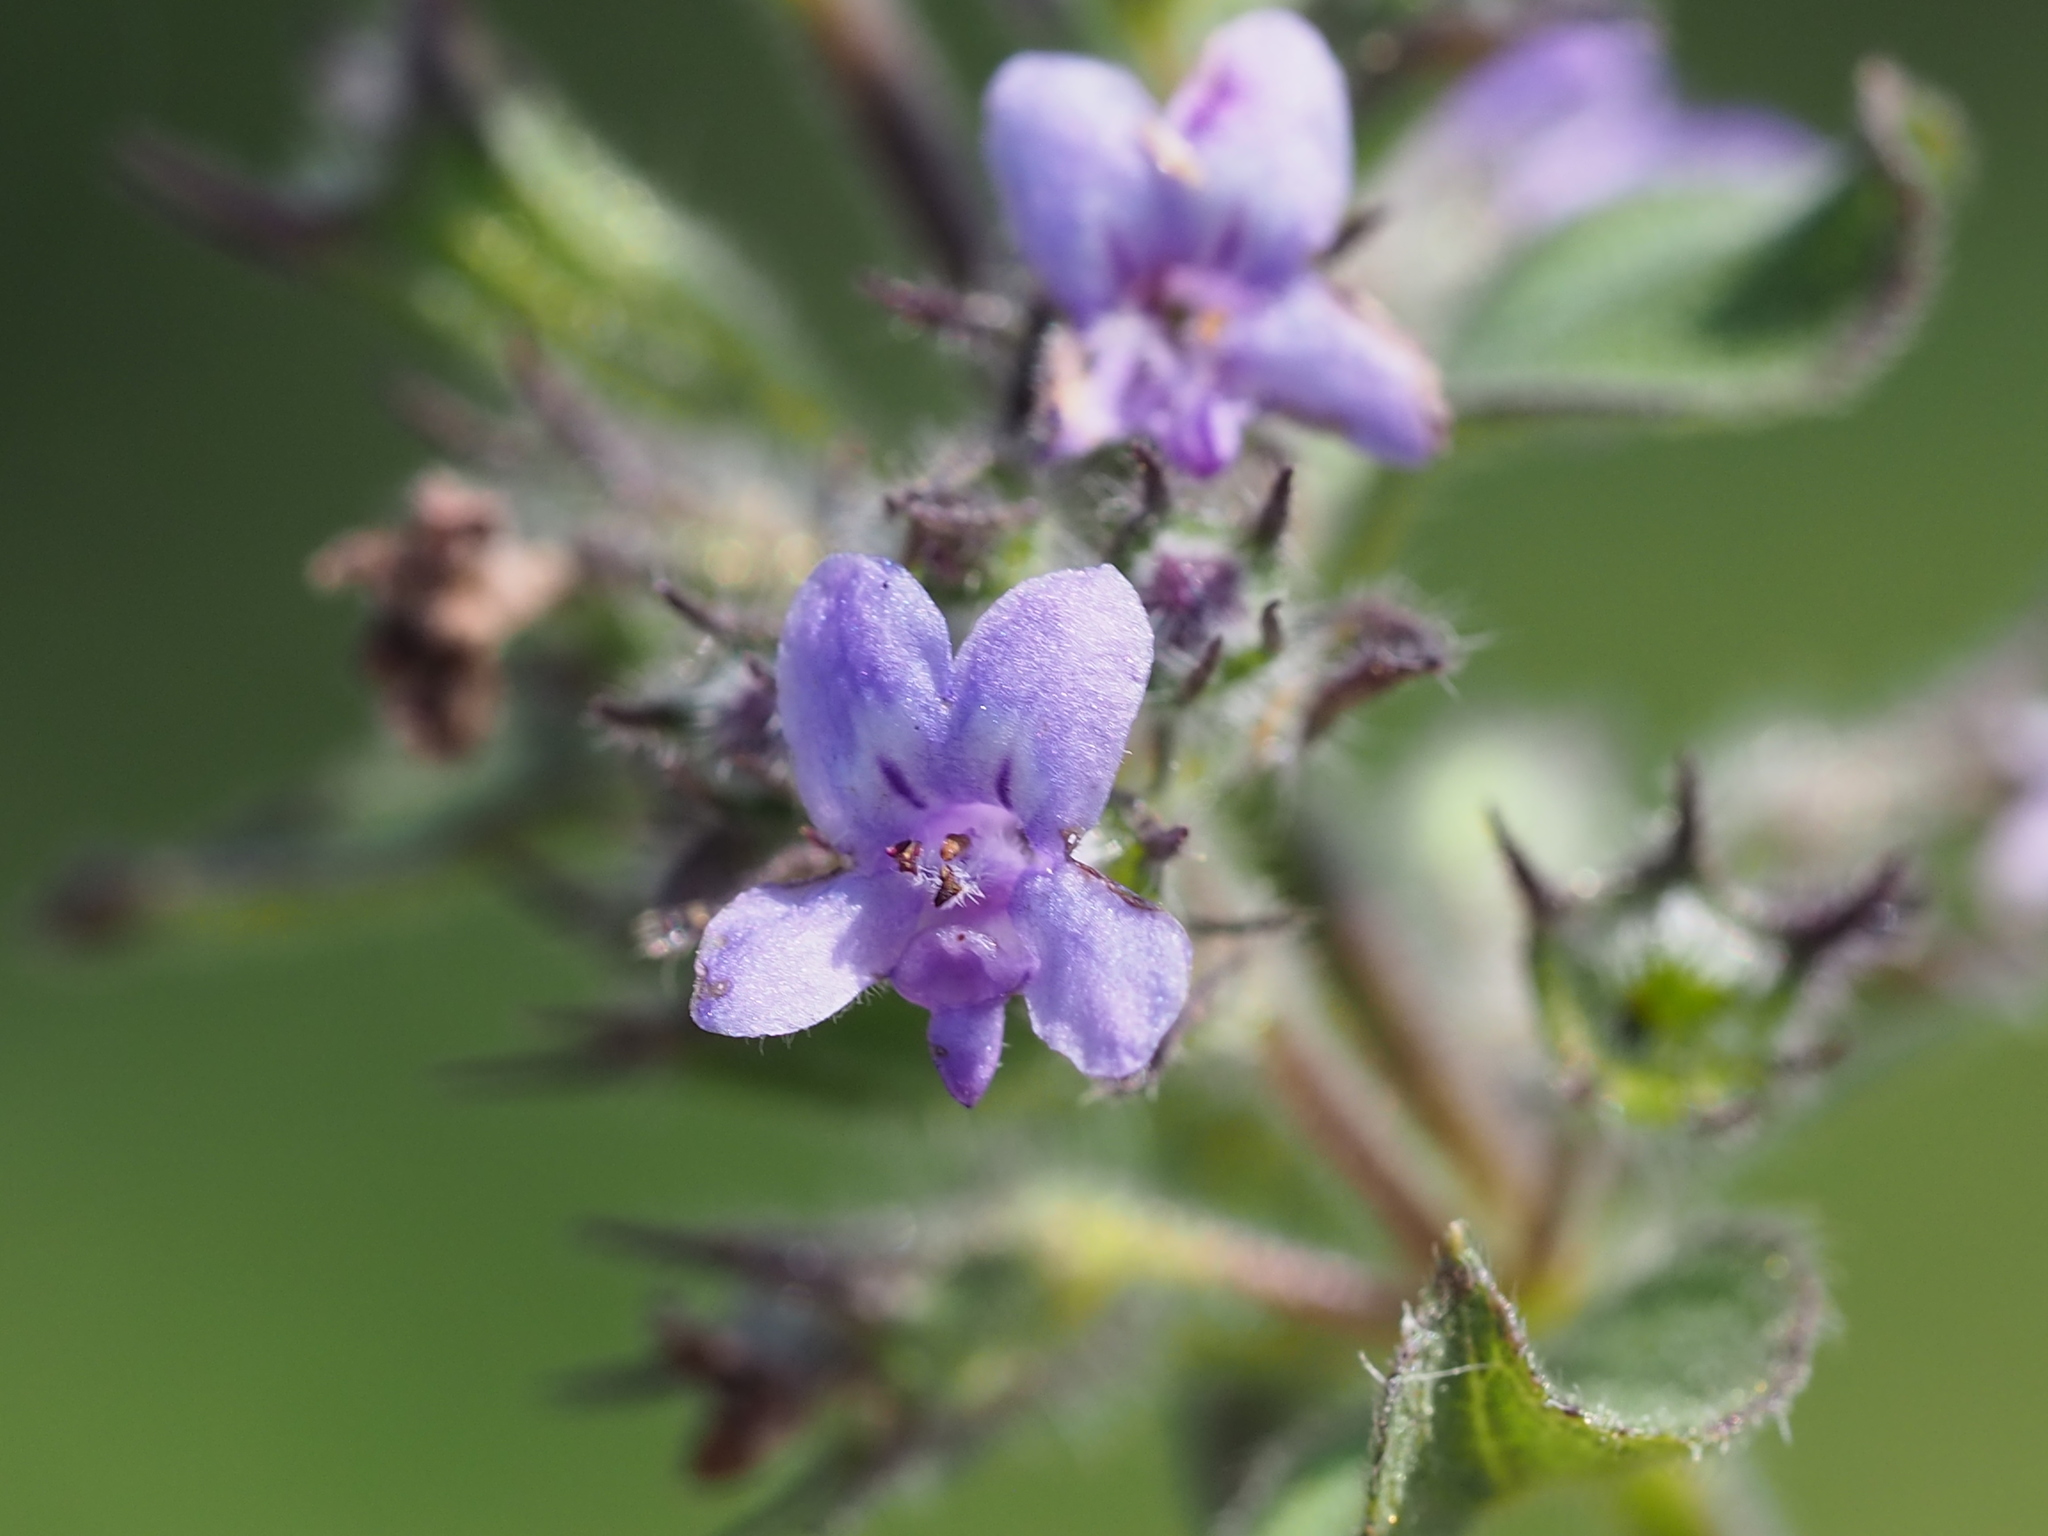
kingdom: Plantae
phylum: Tracheophyta
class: Magnoliopsida
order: Lamiales
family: Lamiaceae
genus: Mesosphaerum
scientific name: Mesosphaerum suaveolens
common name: Pignut
